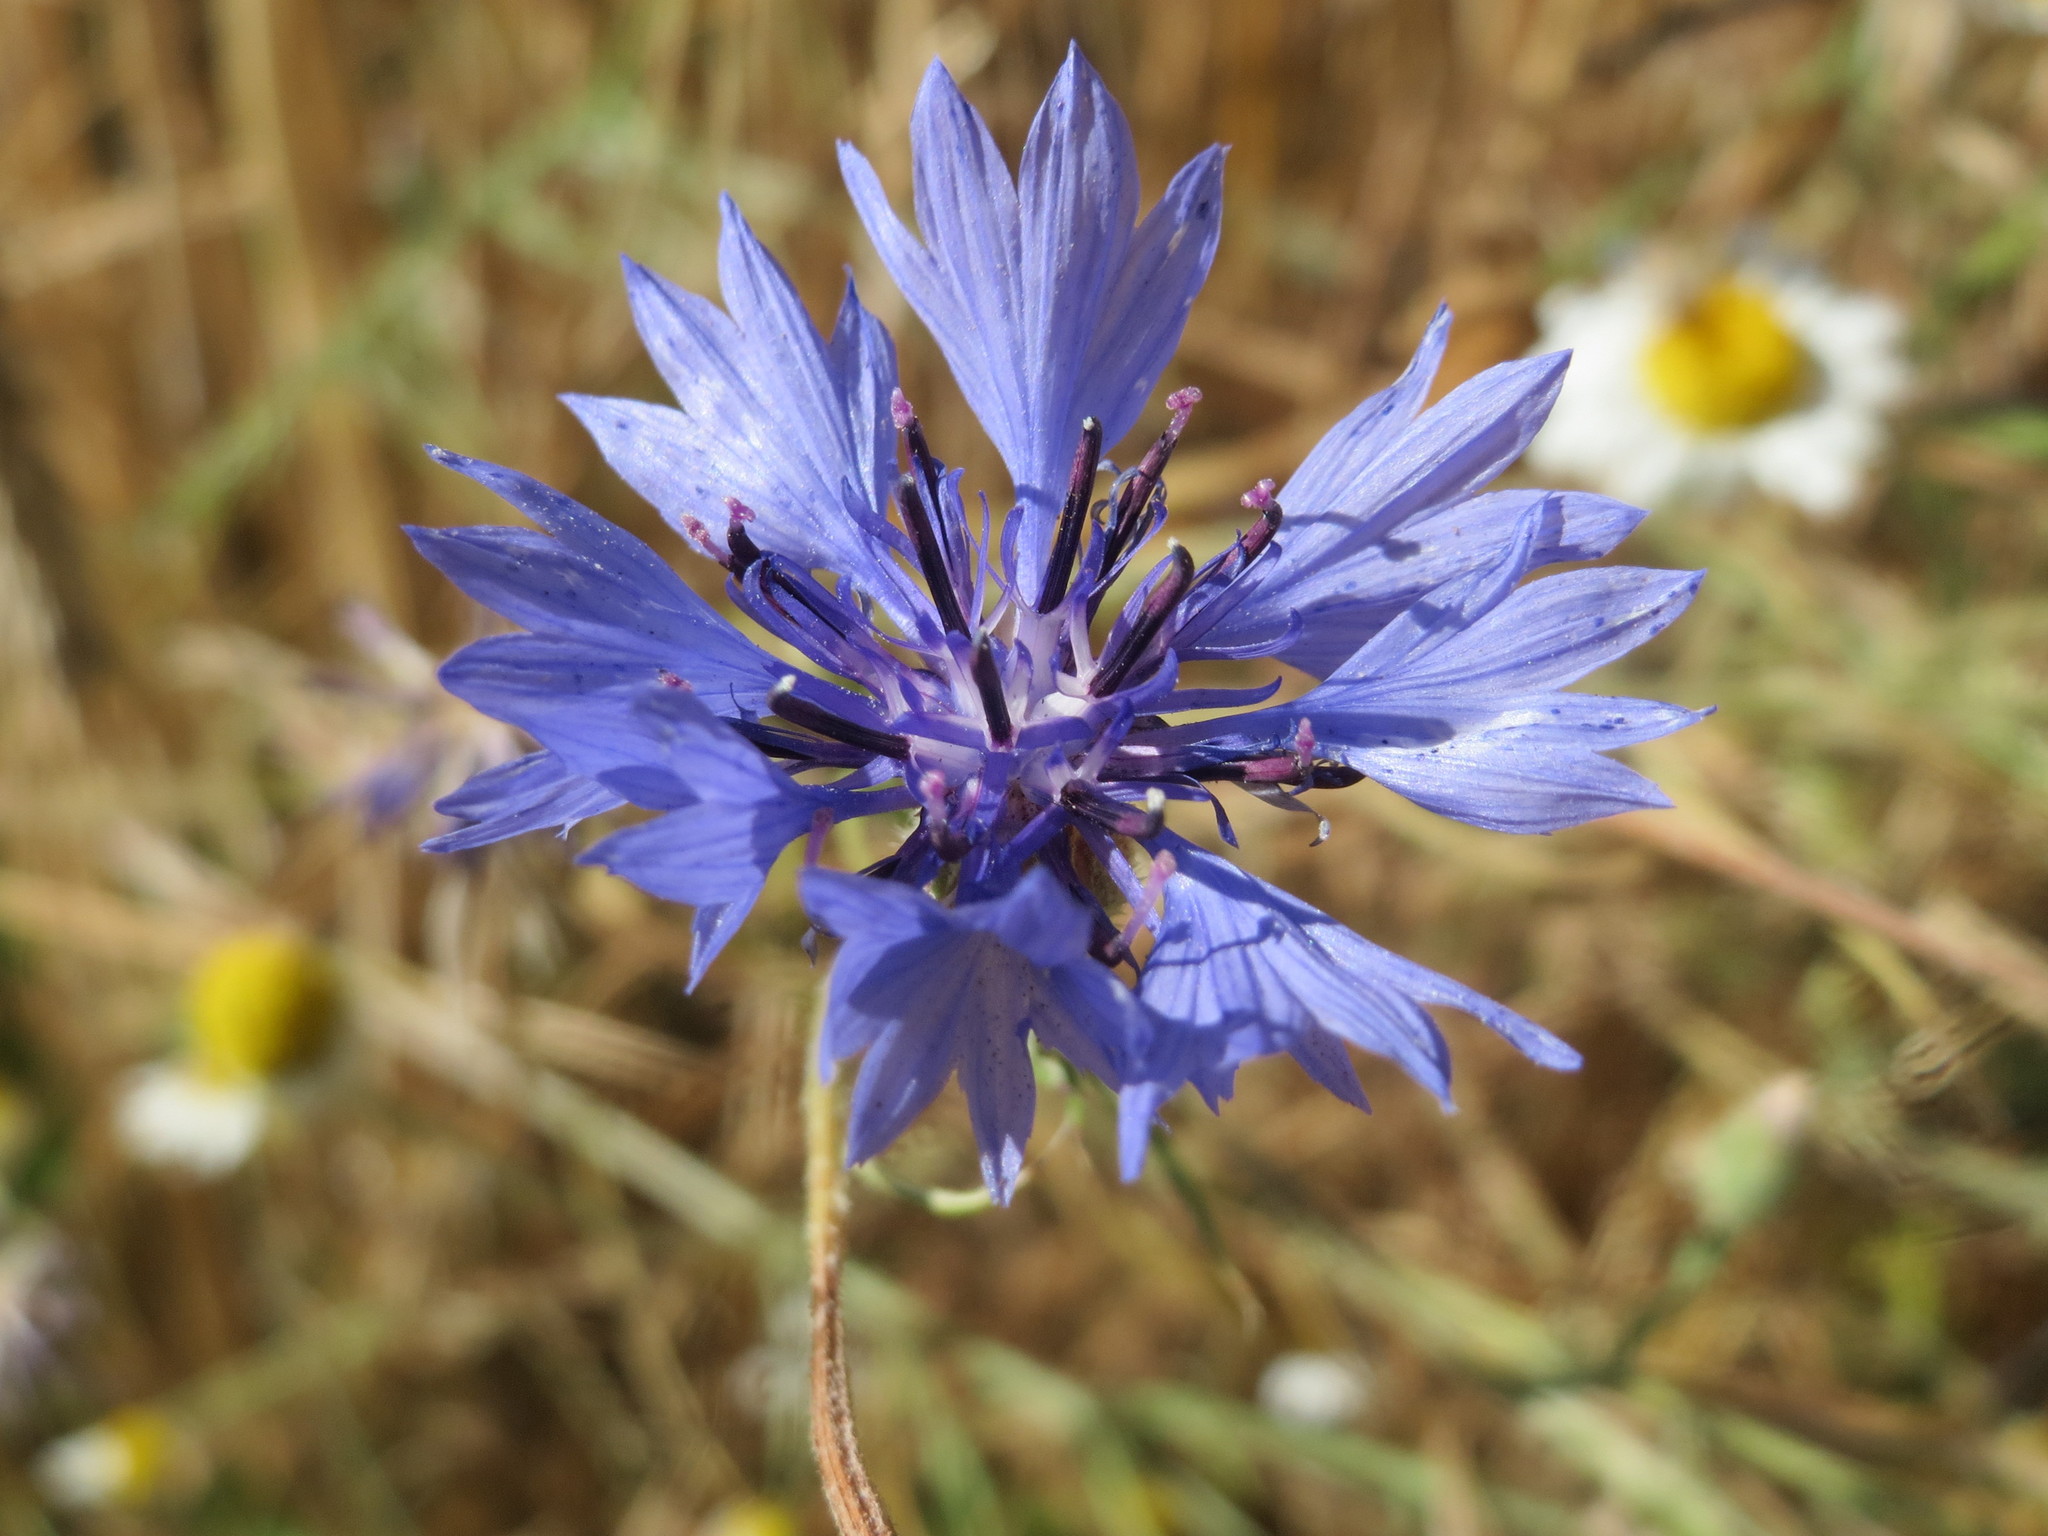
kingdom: Plantae
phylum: Tracheophyta
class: Magnoliopsida
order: Asterales
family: Asteraceae
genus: Centaurea
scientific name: Centaurea cyanus
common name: Cornflower
